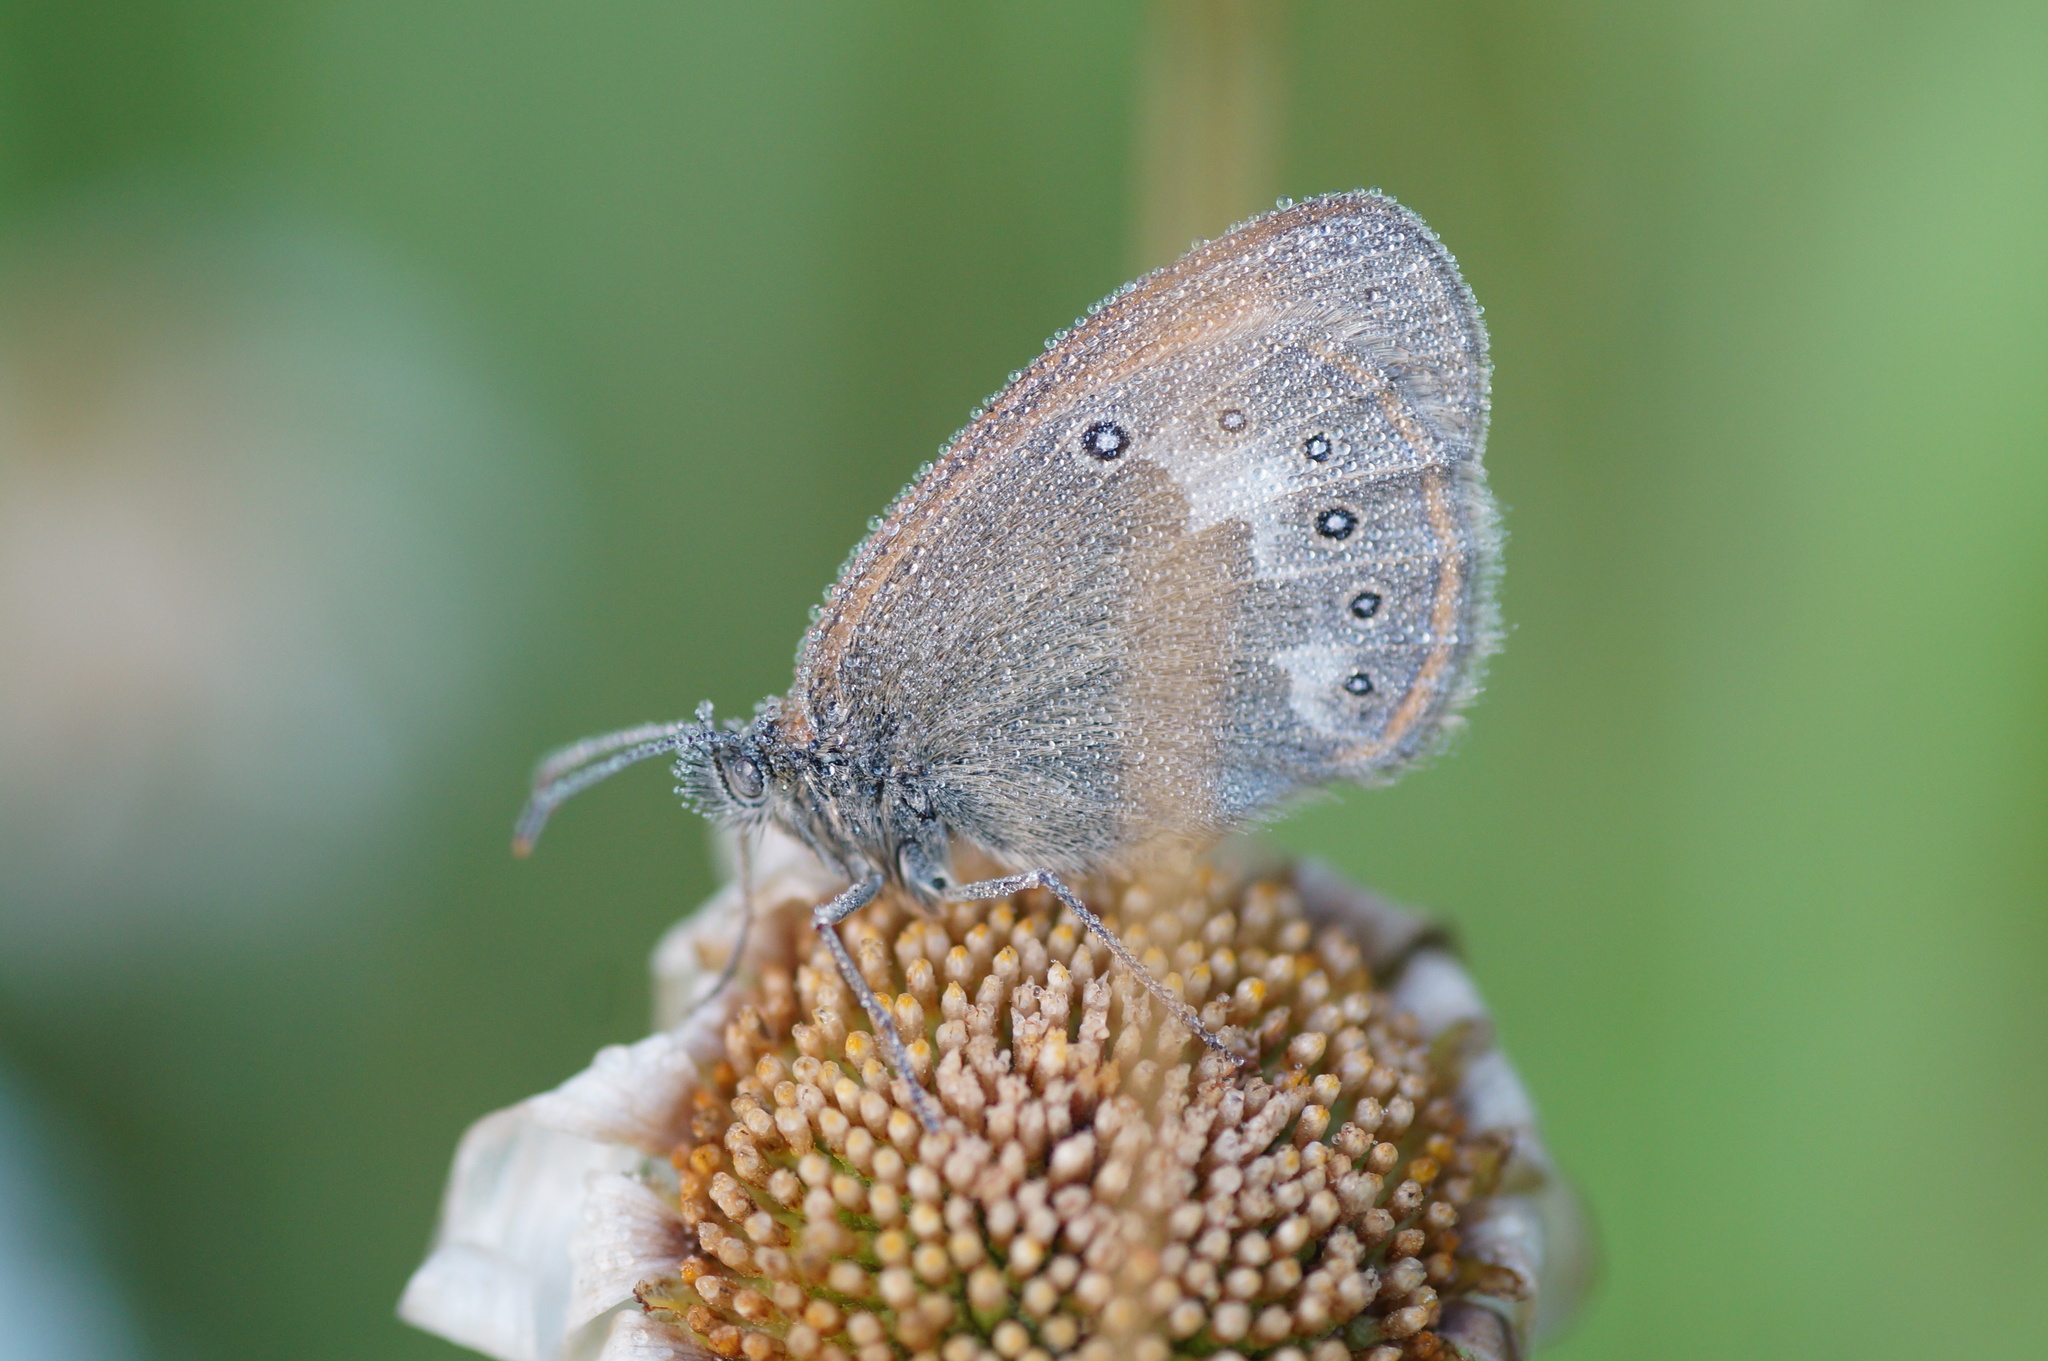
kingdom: Animalia
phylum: Arthropoda
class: Insecta
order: Lepidoptera
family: Nymphalidae
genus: Coenonympha
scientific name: Coenonympha iphis
